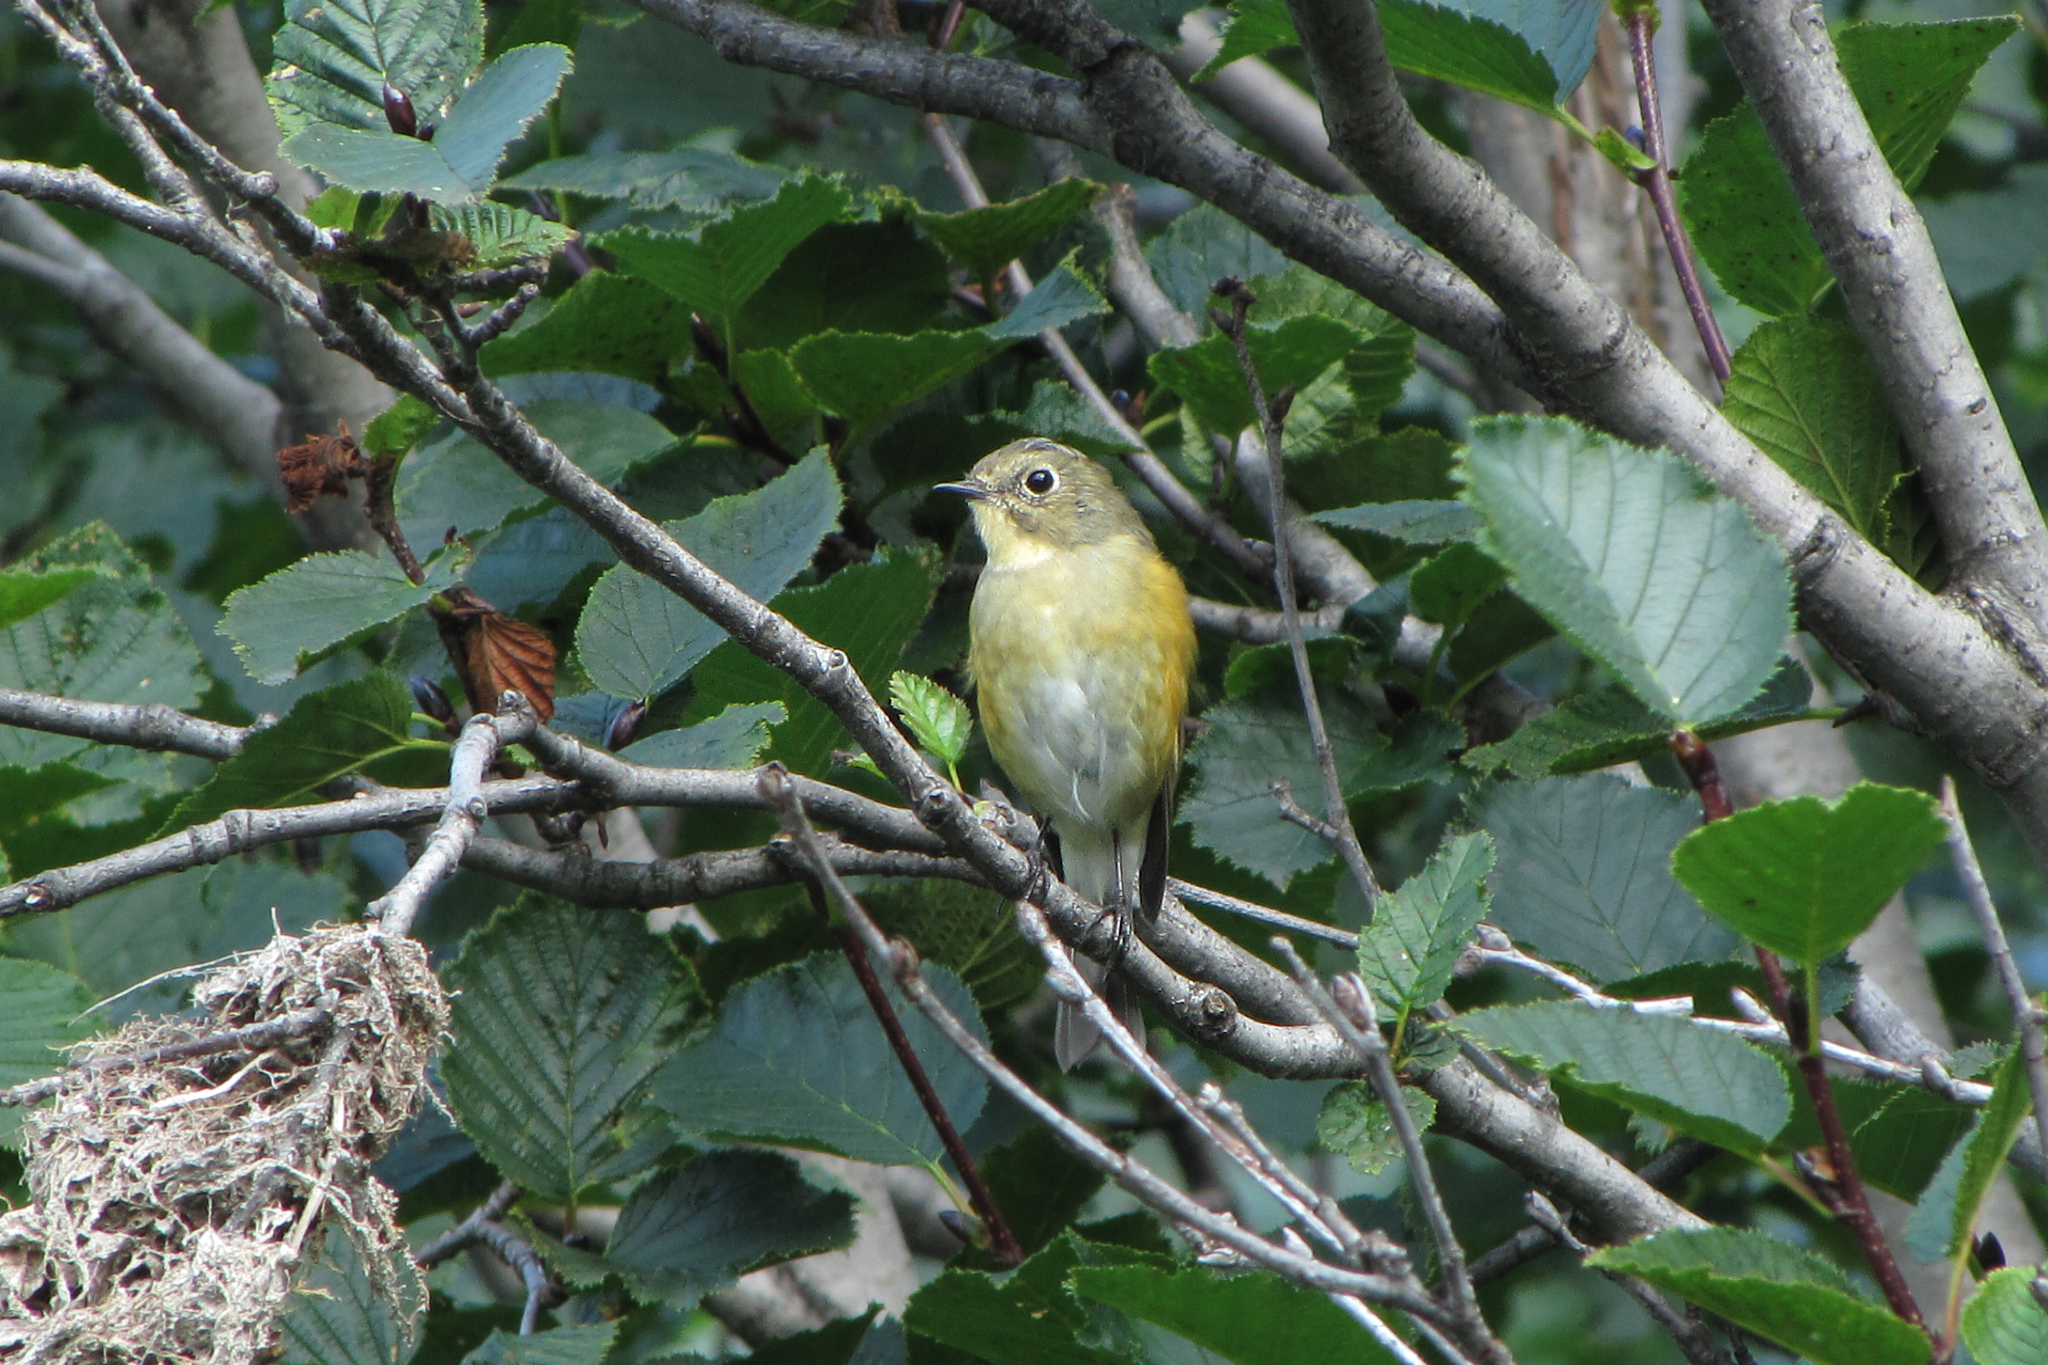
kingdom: Animalia
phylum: Chordata
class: Aves
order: Passeriformes
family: Muscicapidae
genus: Tarsiger
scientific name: Tarsiger cyanurus
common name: Red-flanked bluetail
